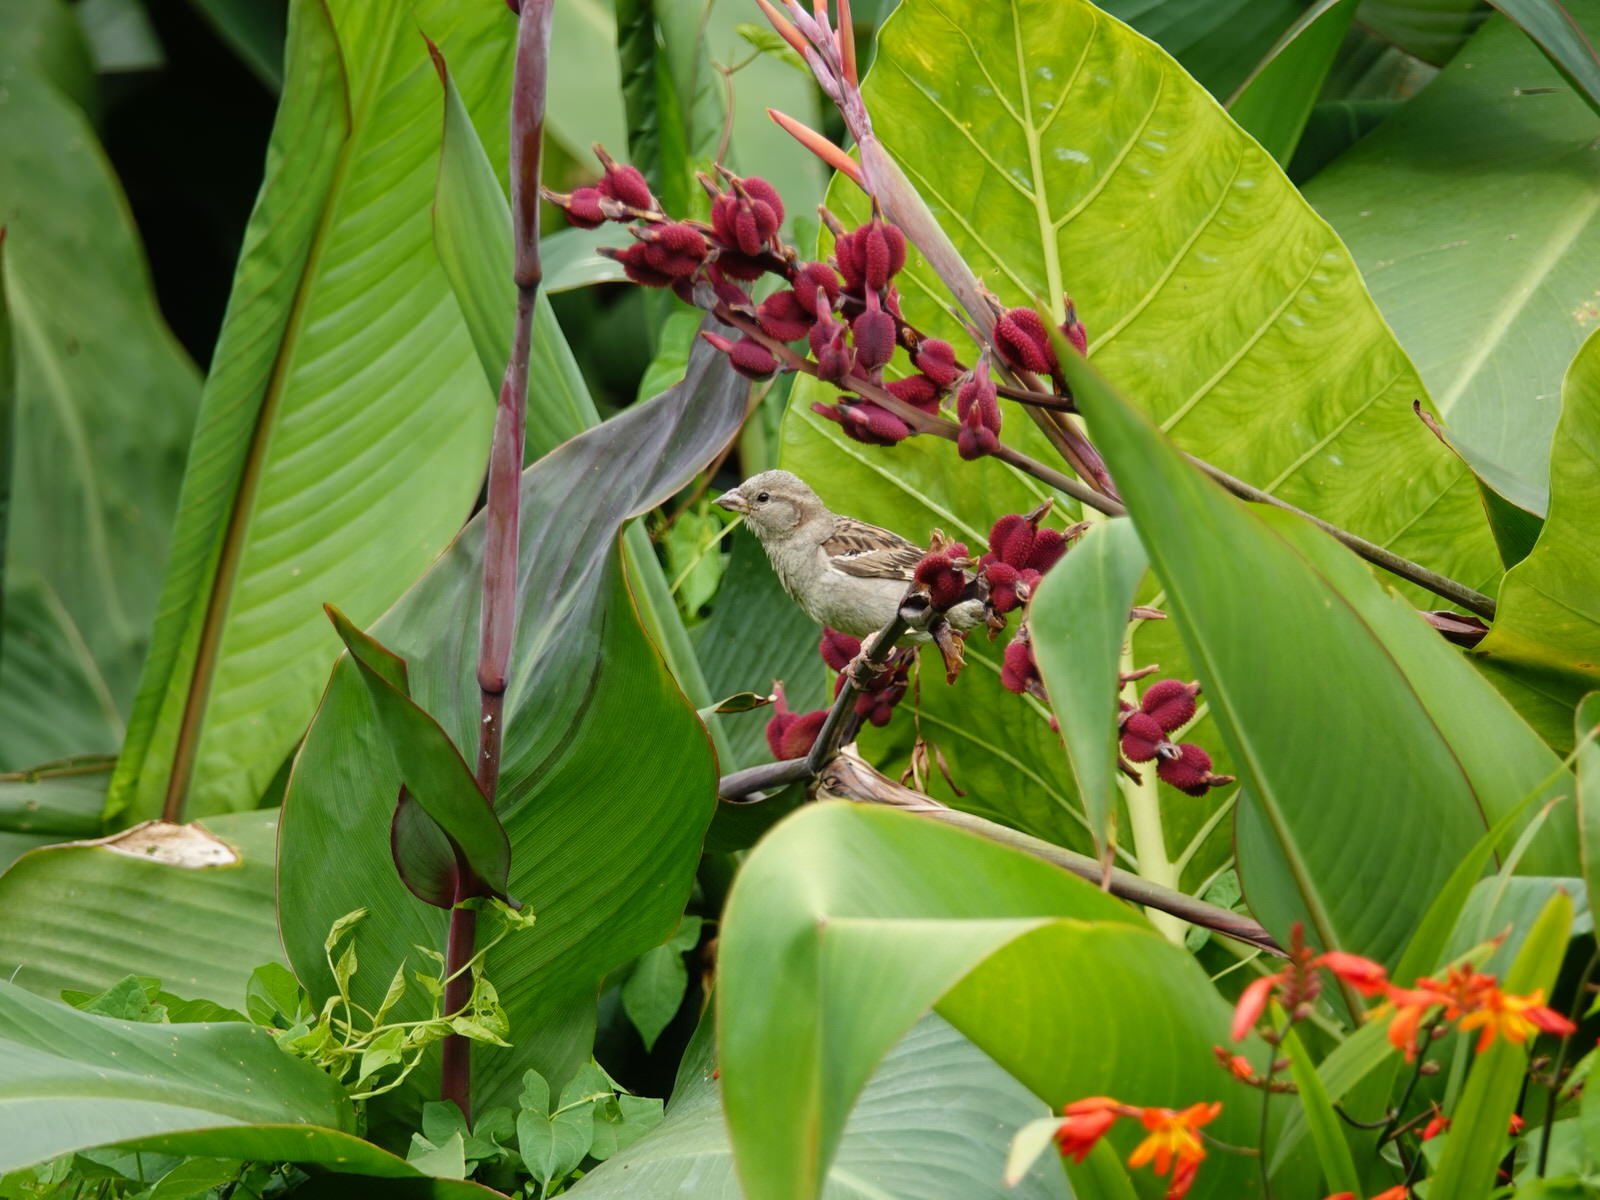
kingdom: Animalia
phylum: Chordata
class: Aves
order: Passeriformes
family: Passeridae
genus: Passer
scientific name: Passer domesticus
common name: House sparrow
